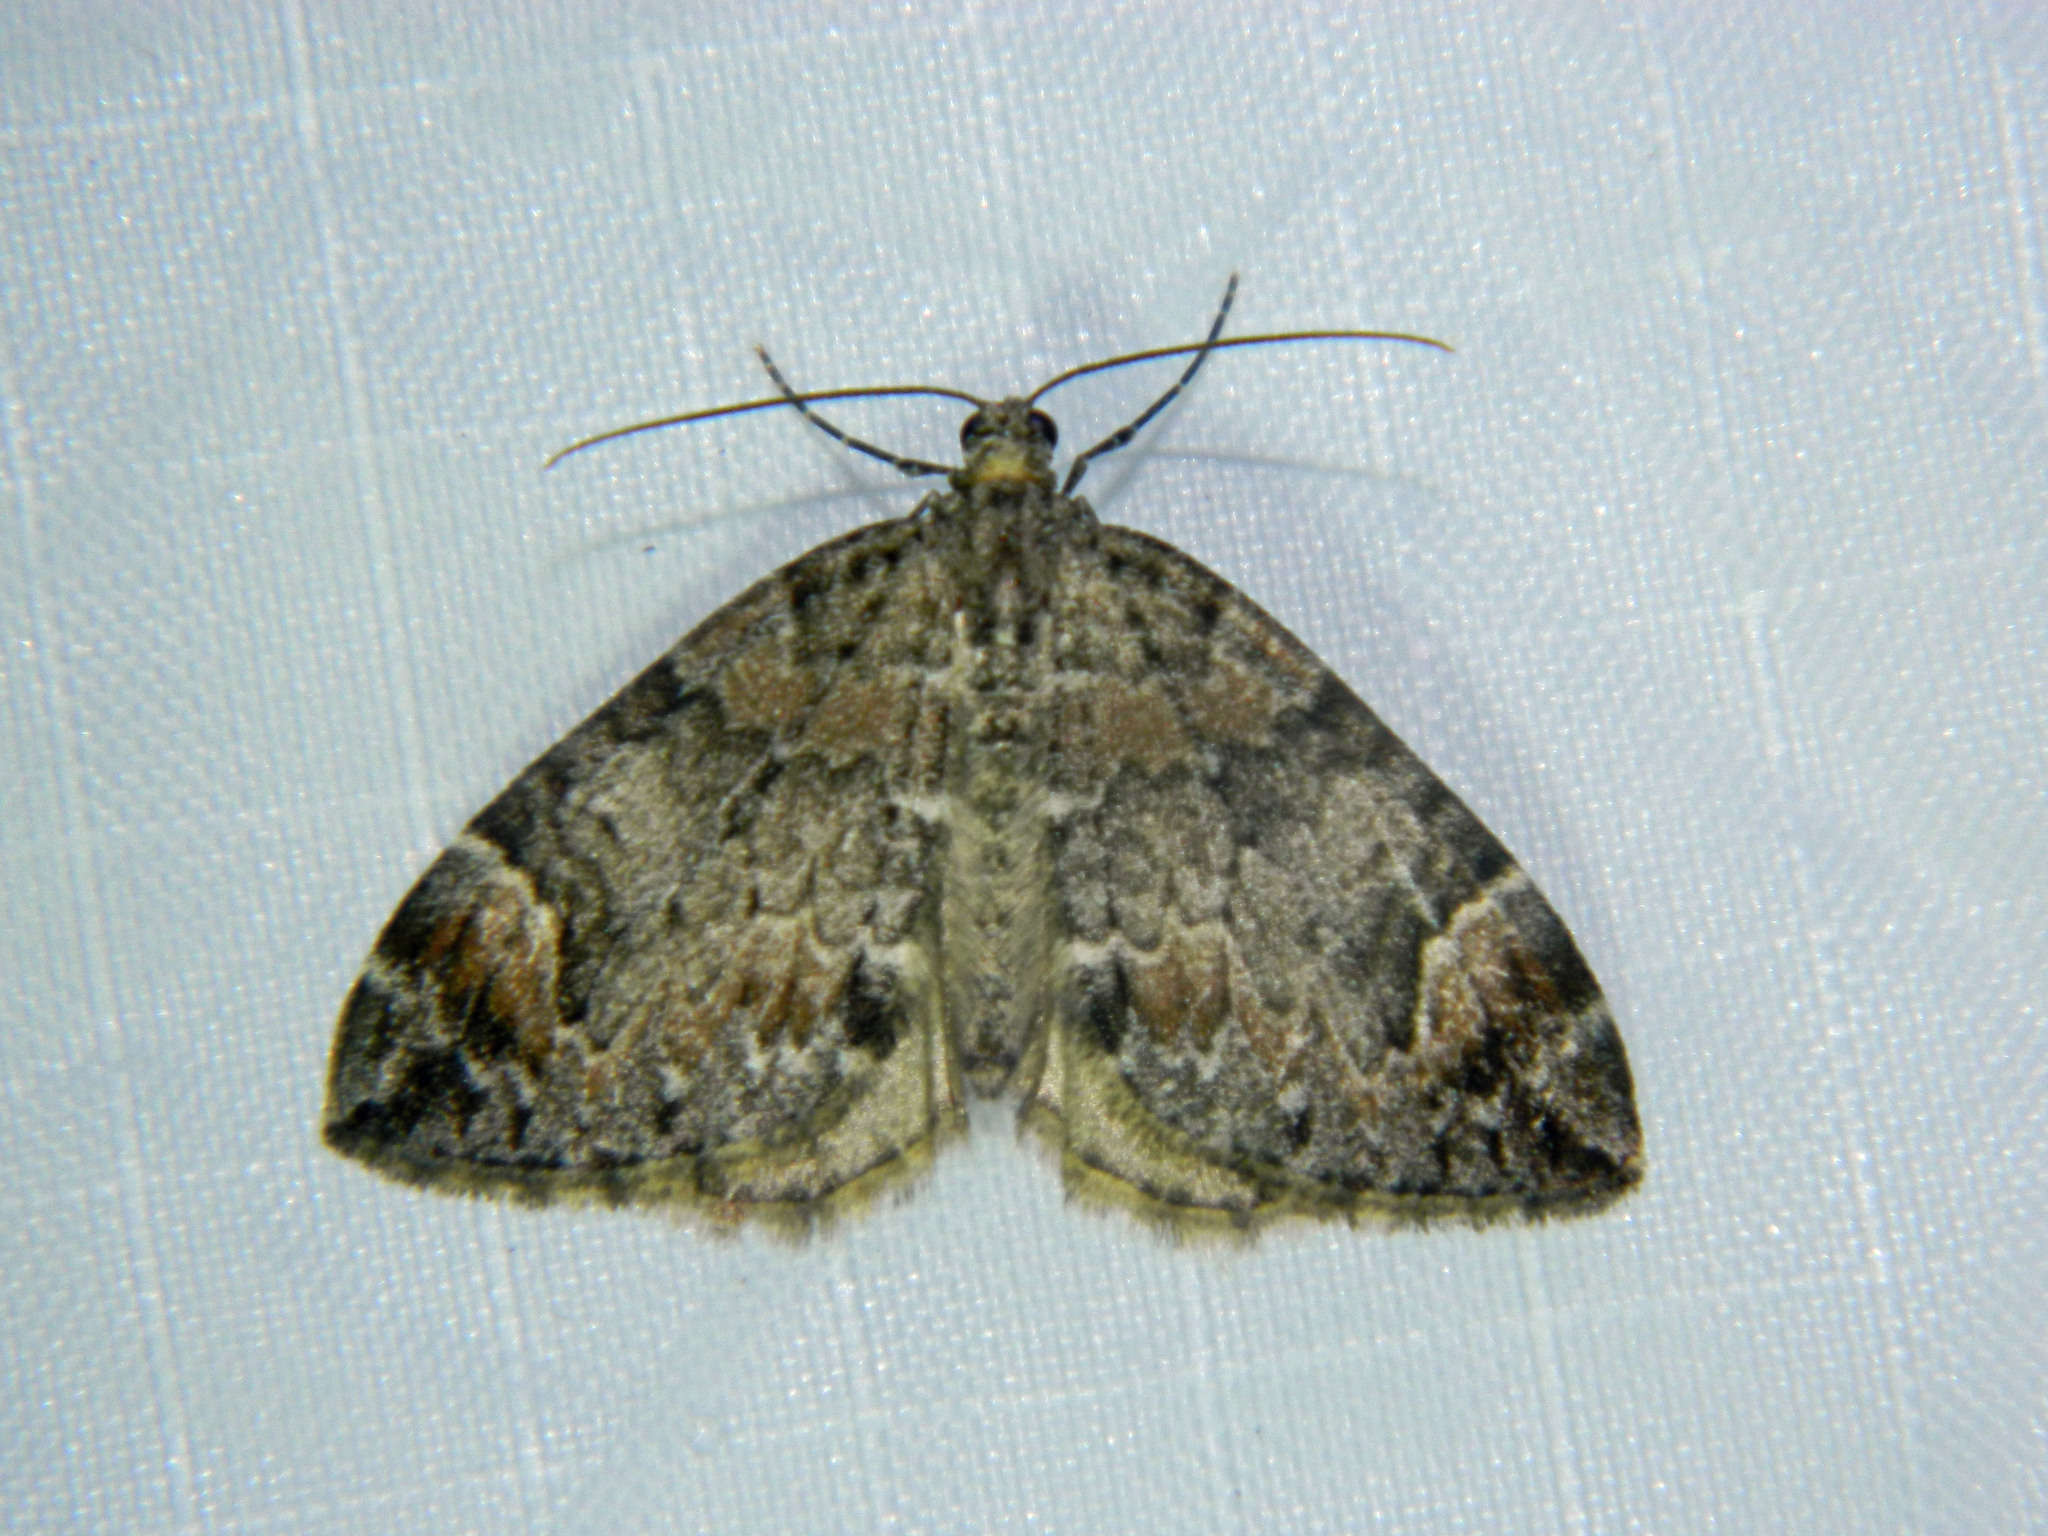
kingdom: Animalia
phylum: Arthropoda
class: Insecta
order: Lepidoptera
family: Geometridae
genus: Dysstroma
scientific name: Dysstroma citrata
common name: Dark marbled carpet
